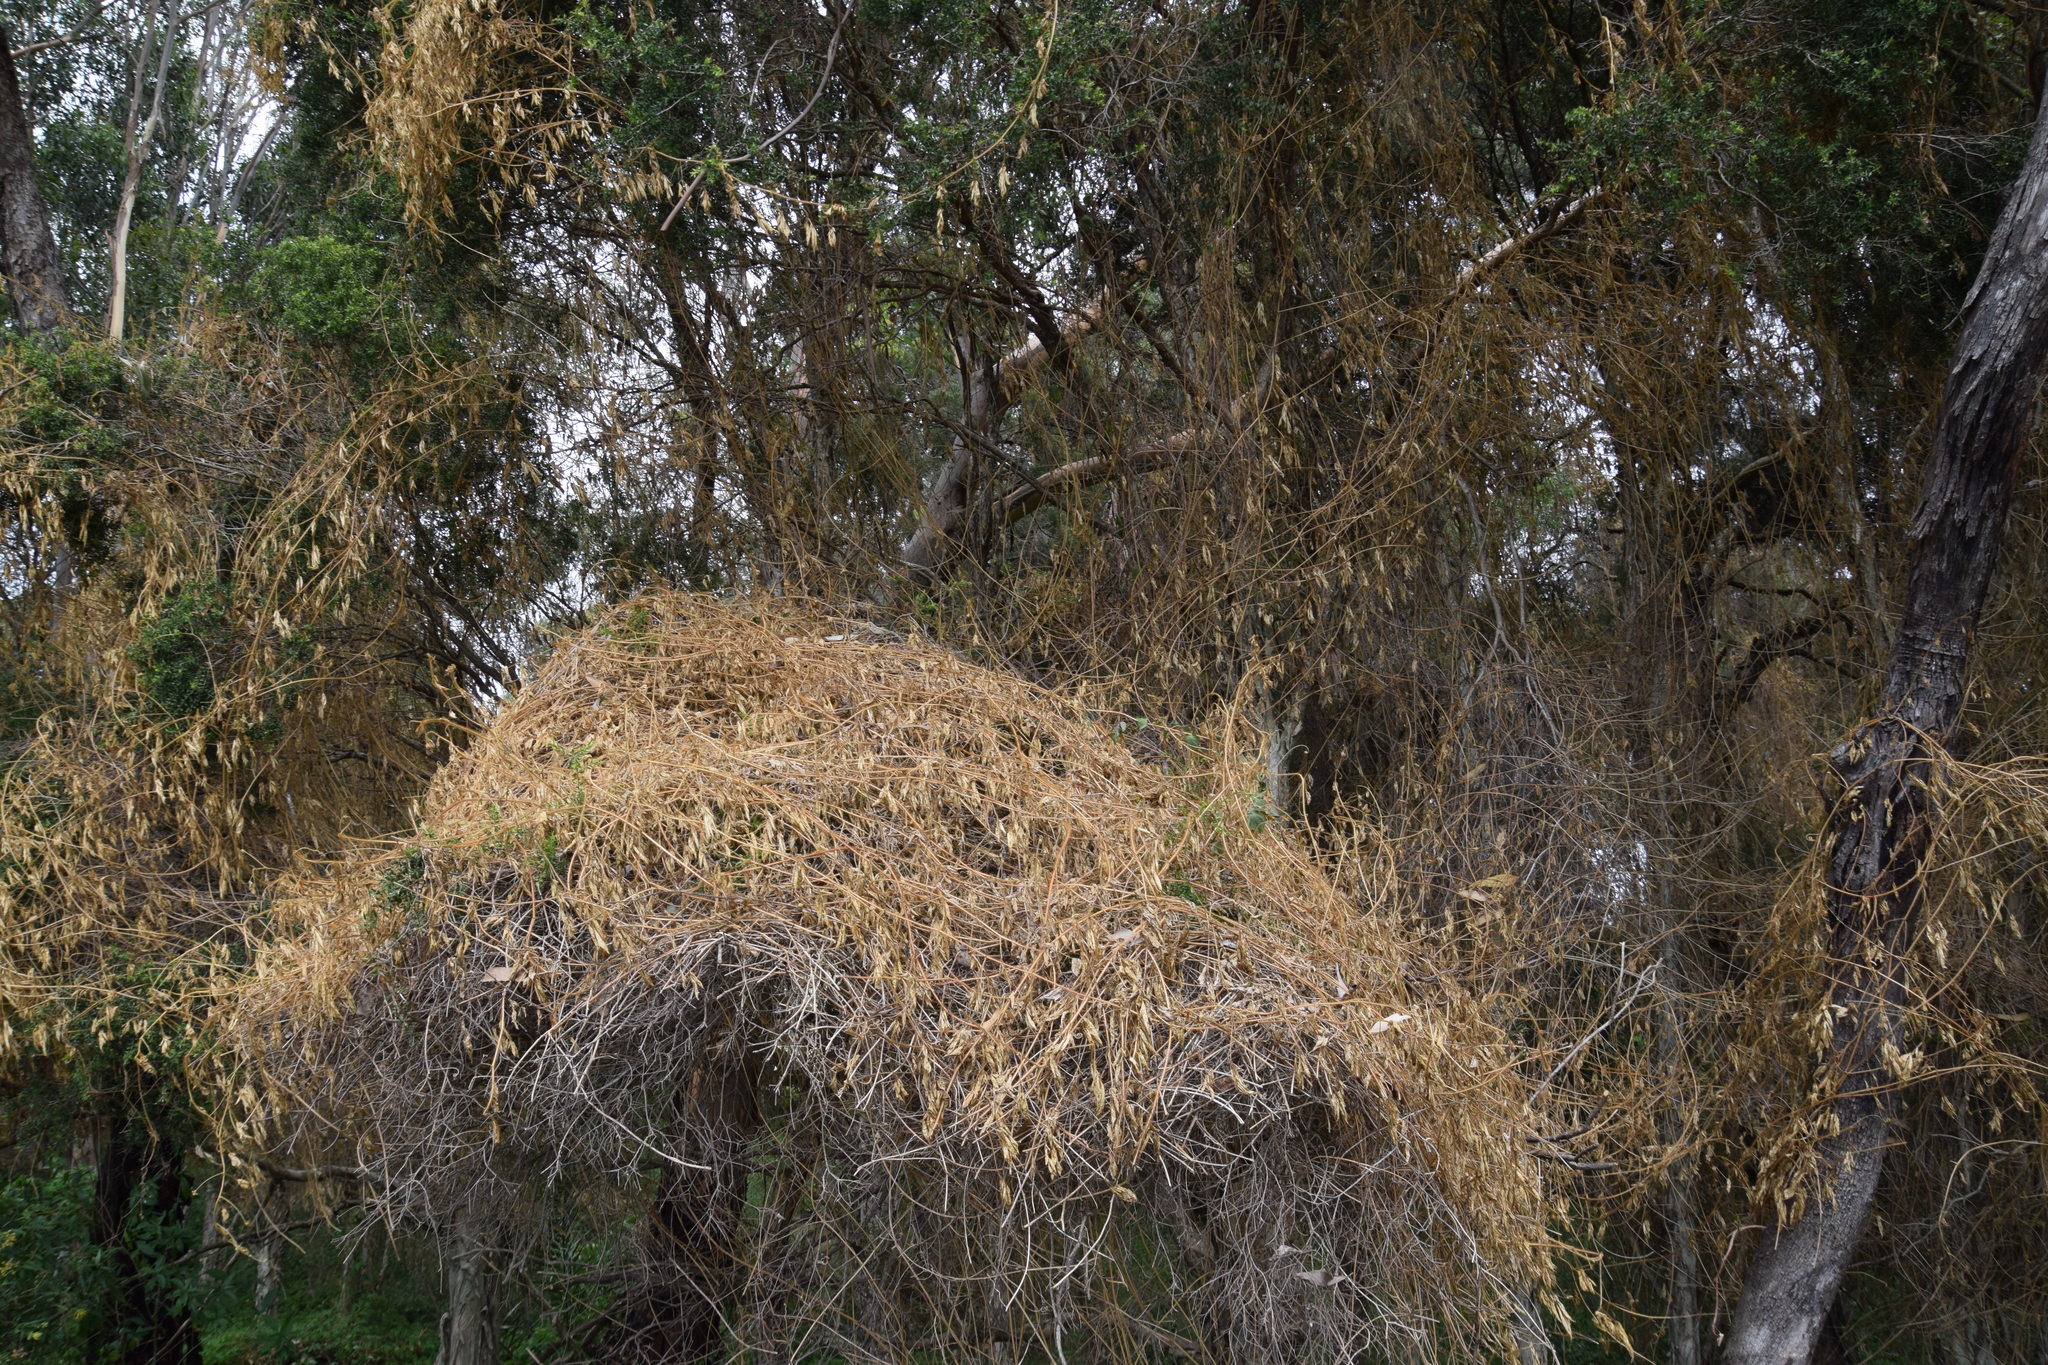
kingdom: Plantae
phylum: Tracheophyta
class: Magnoliopsida
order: Sapindales
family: Sapindaceae
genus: Cardiospermum
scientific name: Cardiospermum grandiflorum
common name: Balloon vine
